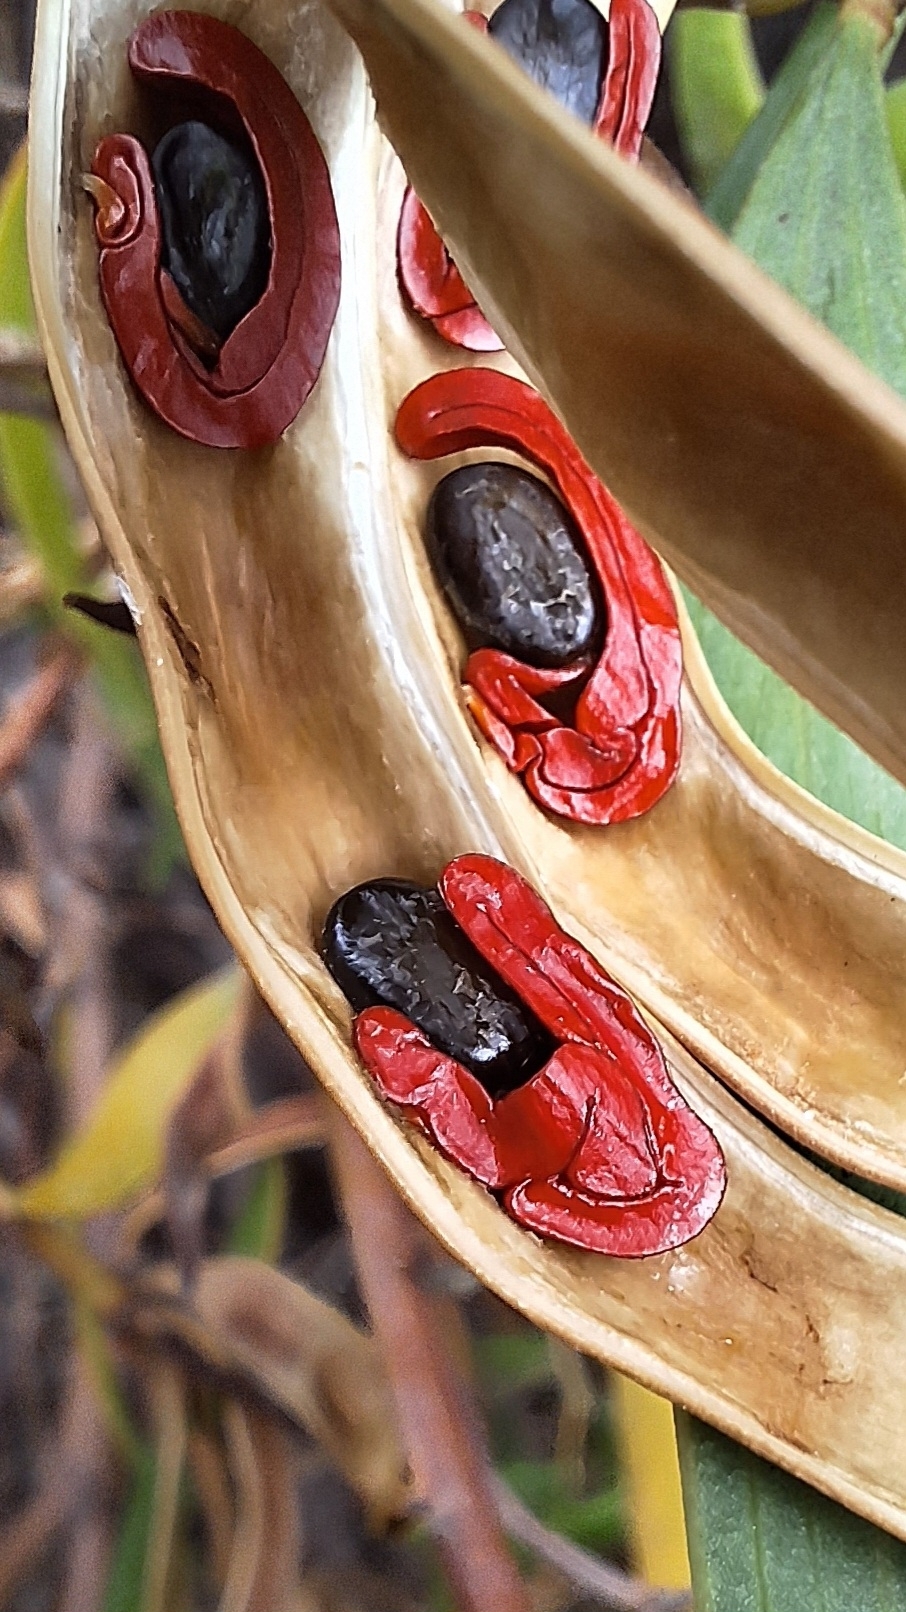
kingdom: Plantae
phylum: Tracheophyta
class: Magnoliopsida
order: Fabales
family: Fabaceae
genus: Acacia
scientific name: Acacia cyclops
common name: Coastal wattle
